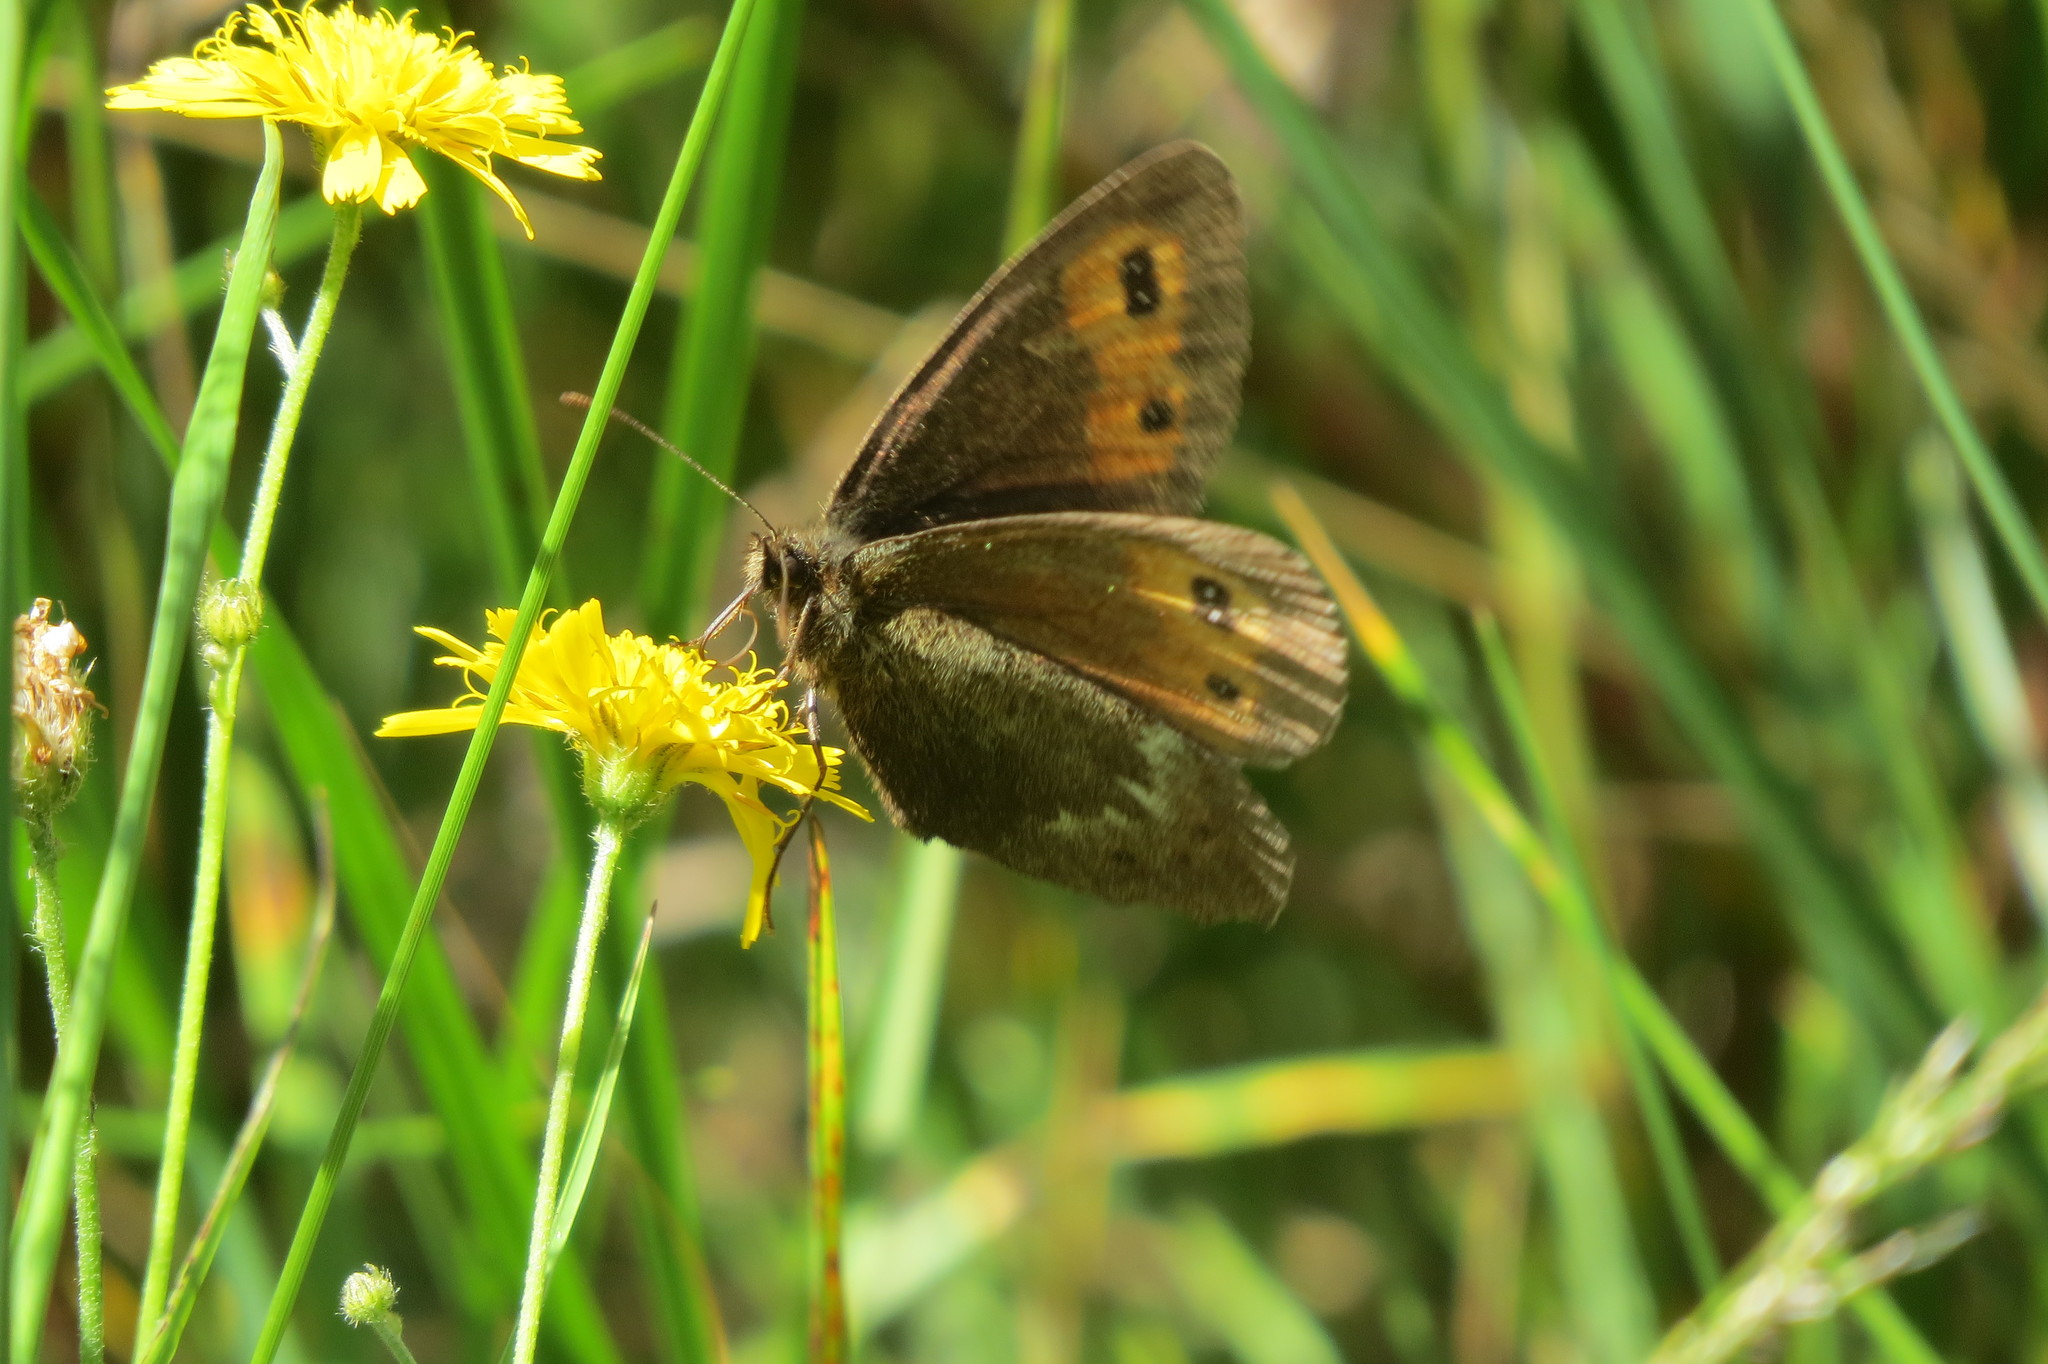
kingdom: Animalia
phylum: Arthropoda
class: Insecta
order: Lepidoptera
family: Nymphalidae
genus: Erebia
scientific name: Erebia euryale
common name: Large ringlet
